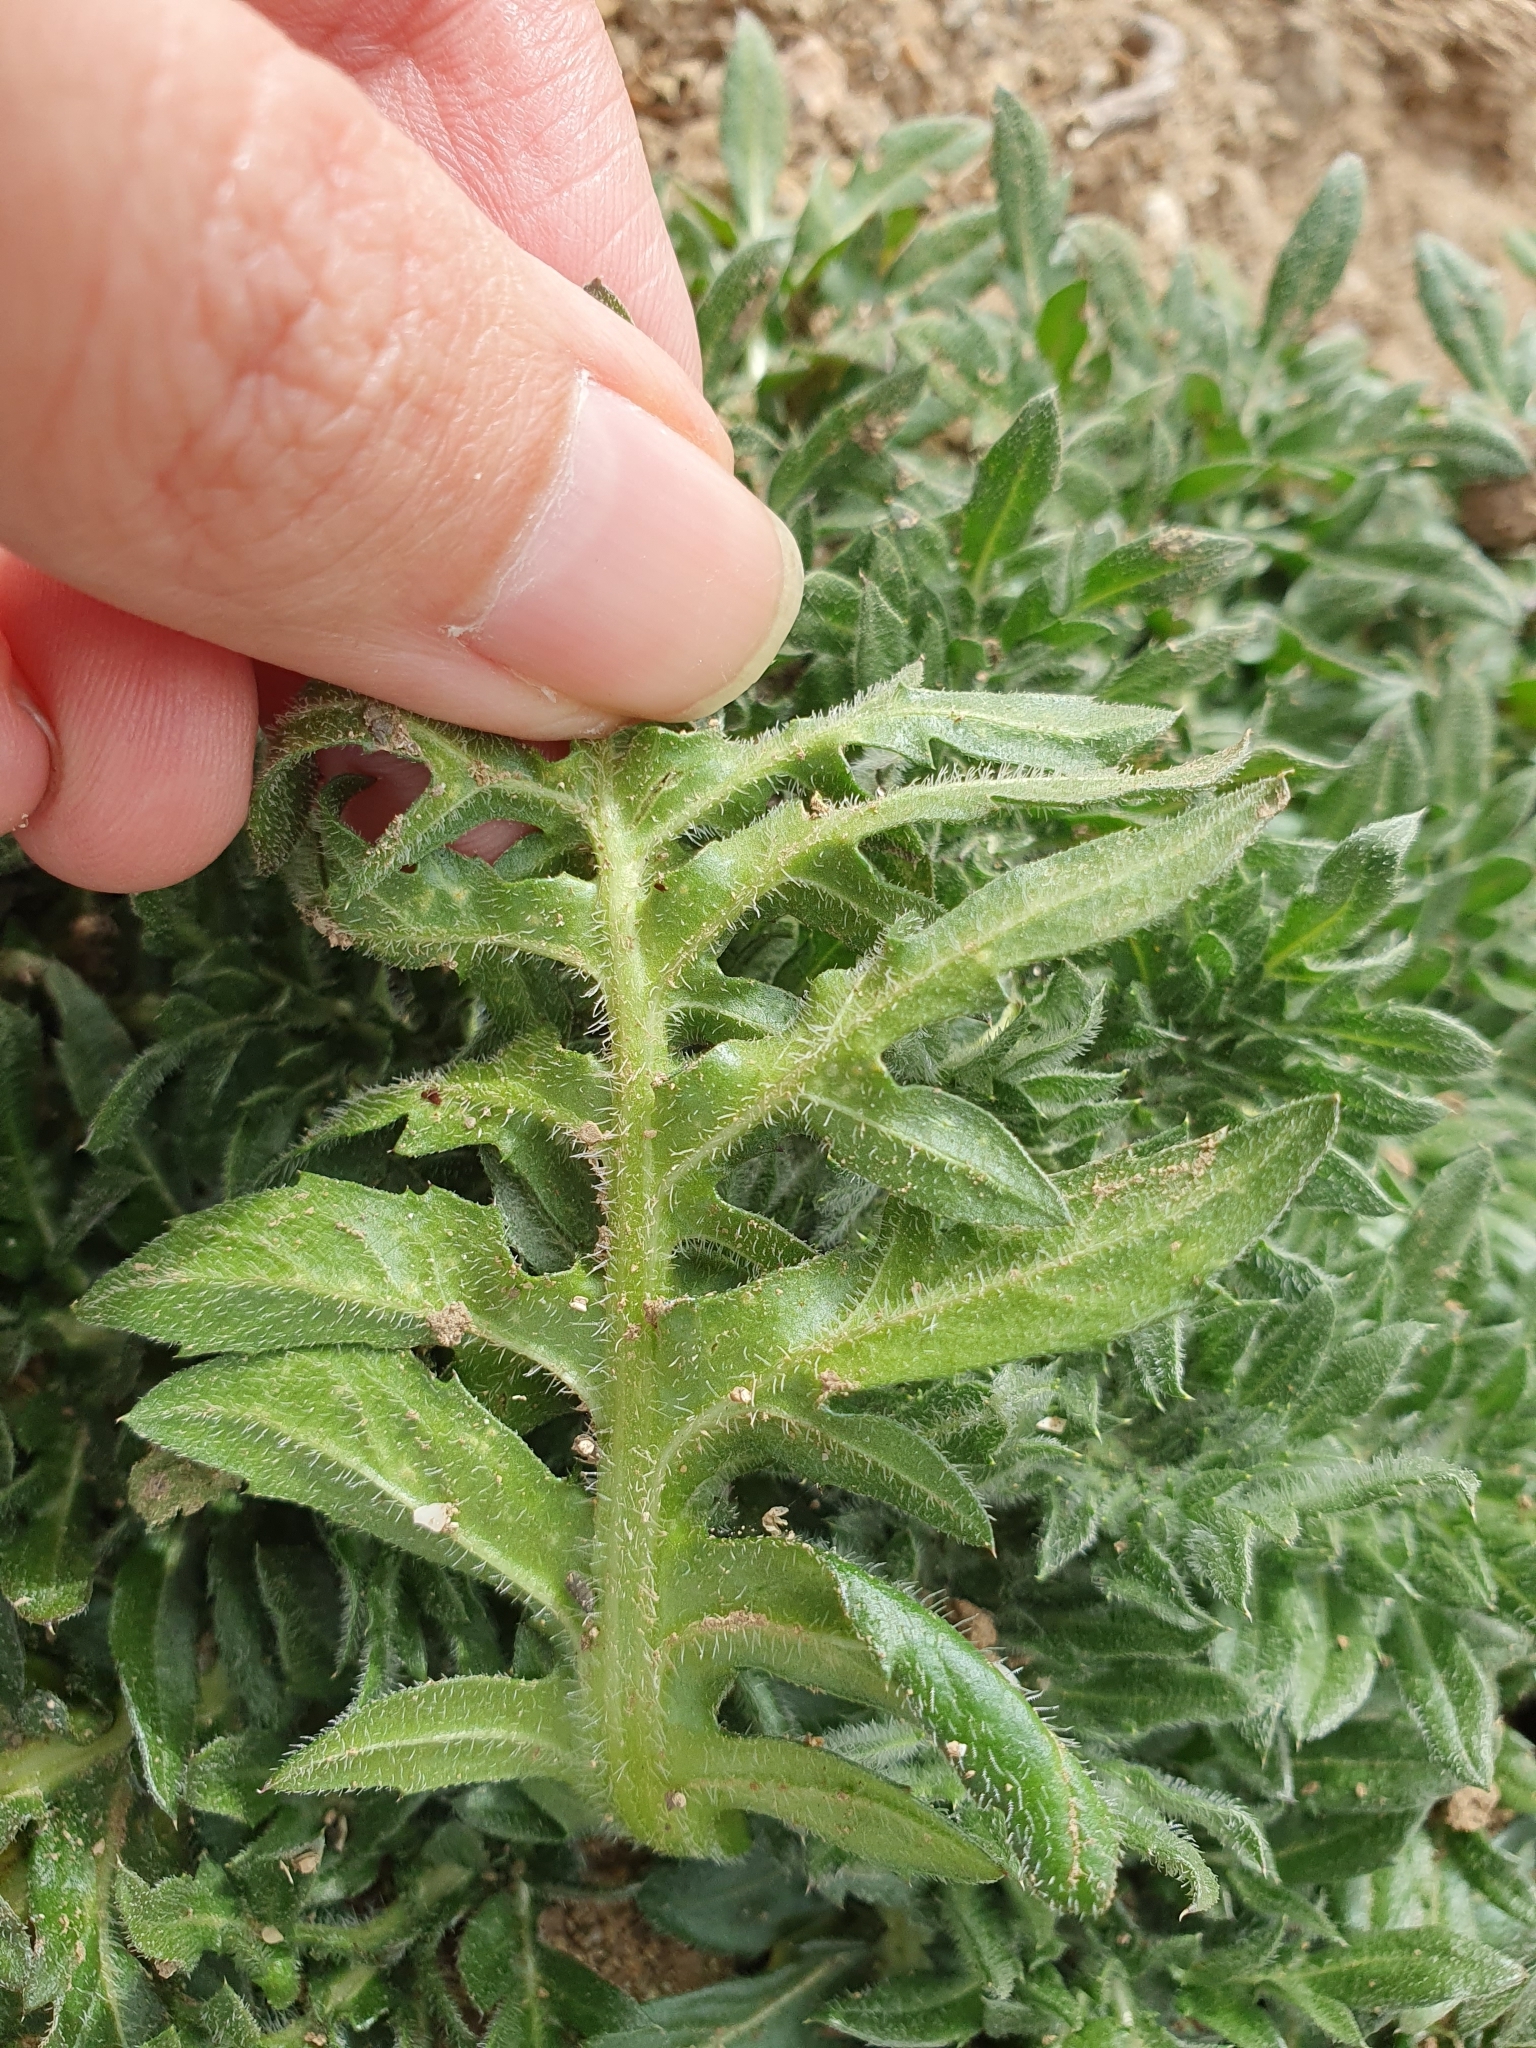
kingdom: Plantae
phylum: Tracheophyta
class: Magnoliopsida
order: Asterales
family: Asteraceae
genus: Centaurea
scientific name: Centaurea calcitrapa
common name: Red star-thistle
